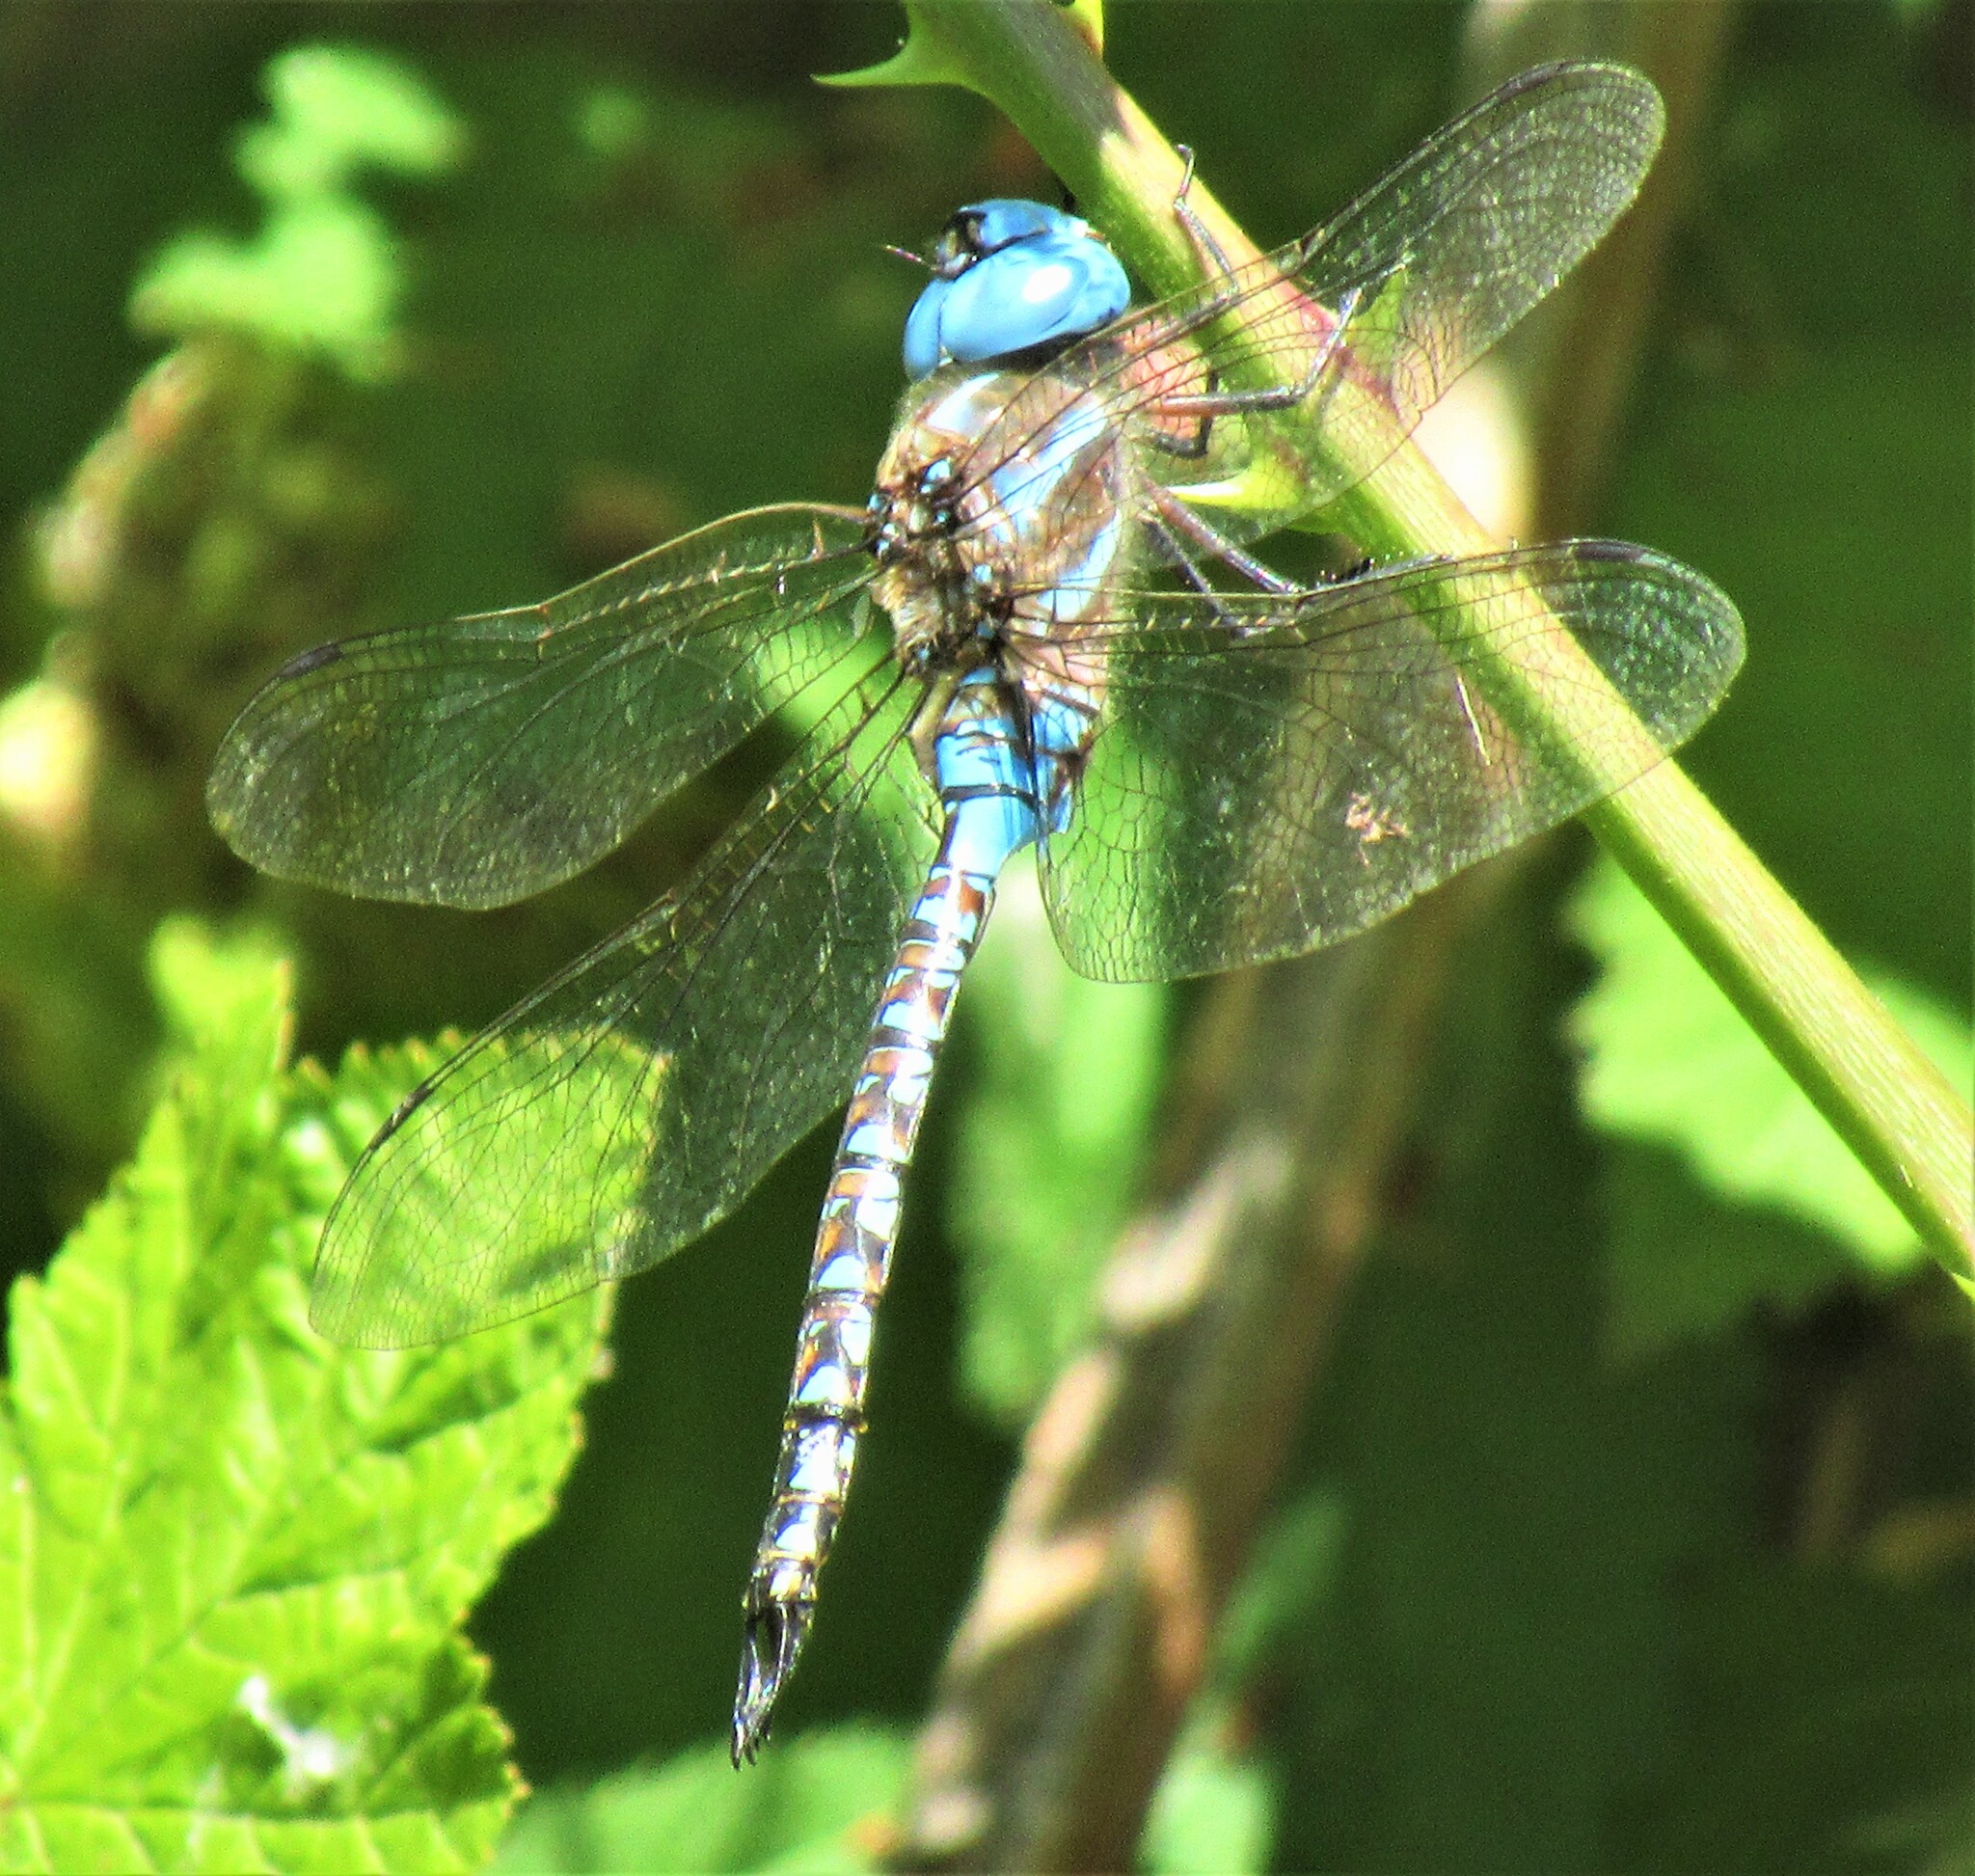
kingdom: Animalia
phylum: Arthropoda
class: Insecta
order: Odonata
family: Aeshnidae
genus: Rhionaeschna
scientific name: Rhionaeschna multicolor
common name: Blue-eyed darner
